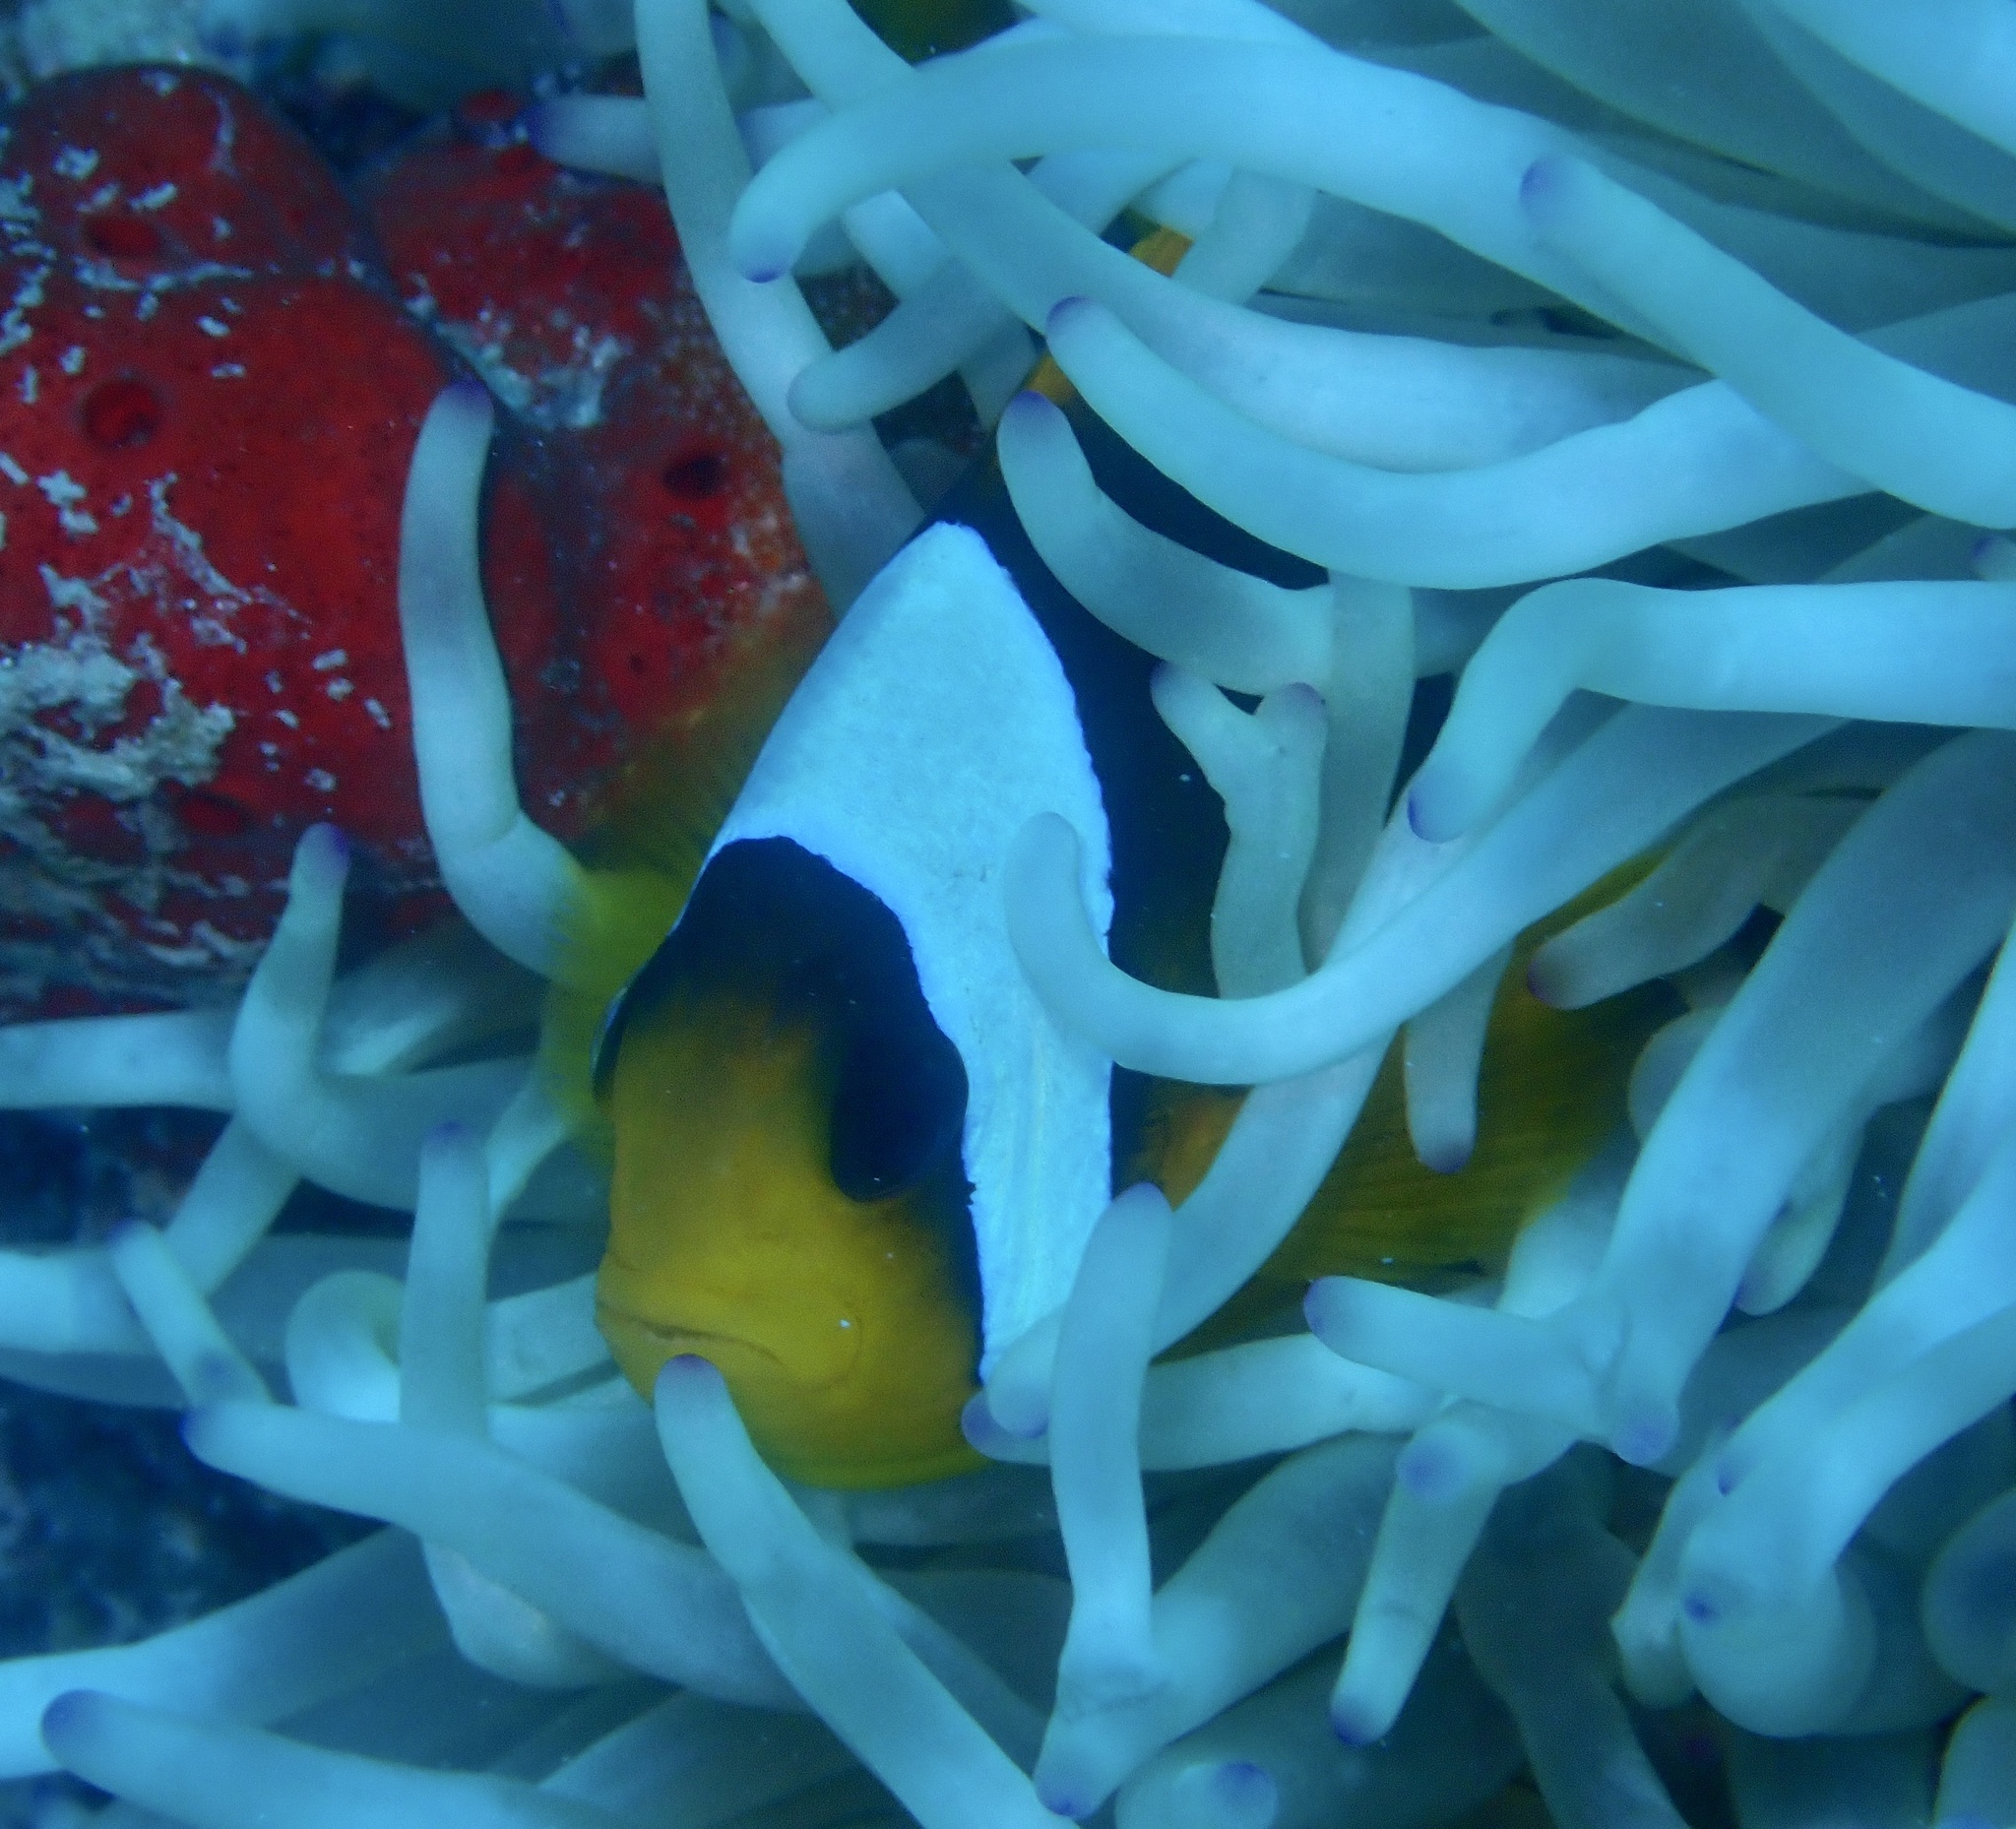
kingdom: Animalia
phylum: Chordata
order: Perciformes
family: Pomacentridae
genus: Amphiprion
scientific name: Amphiprion bicinctus
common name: Two-banded anemonefish
